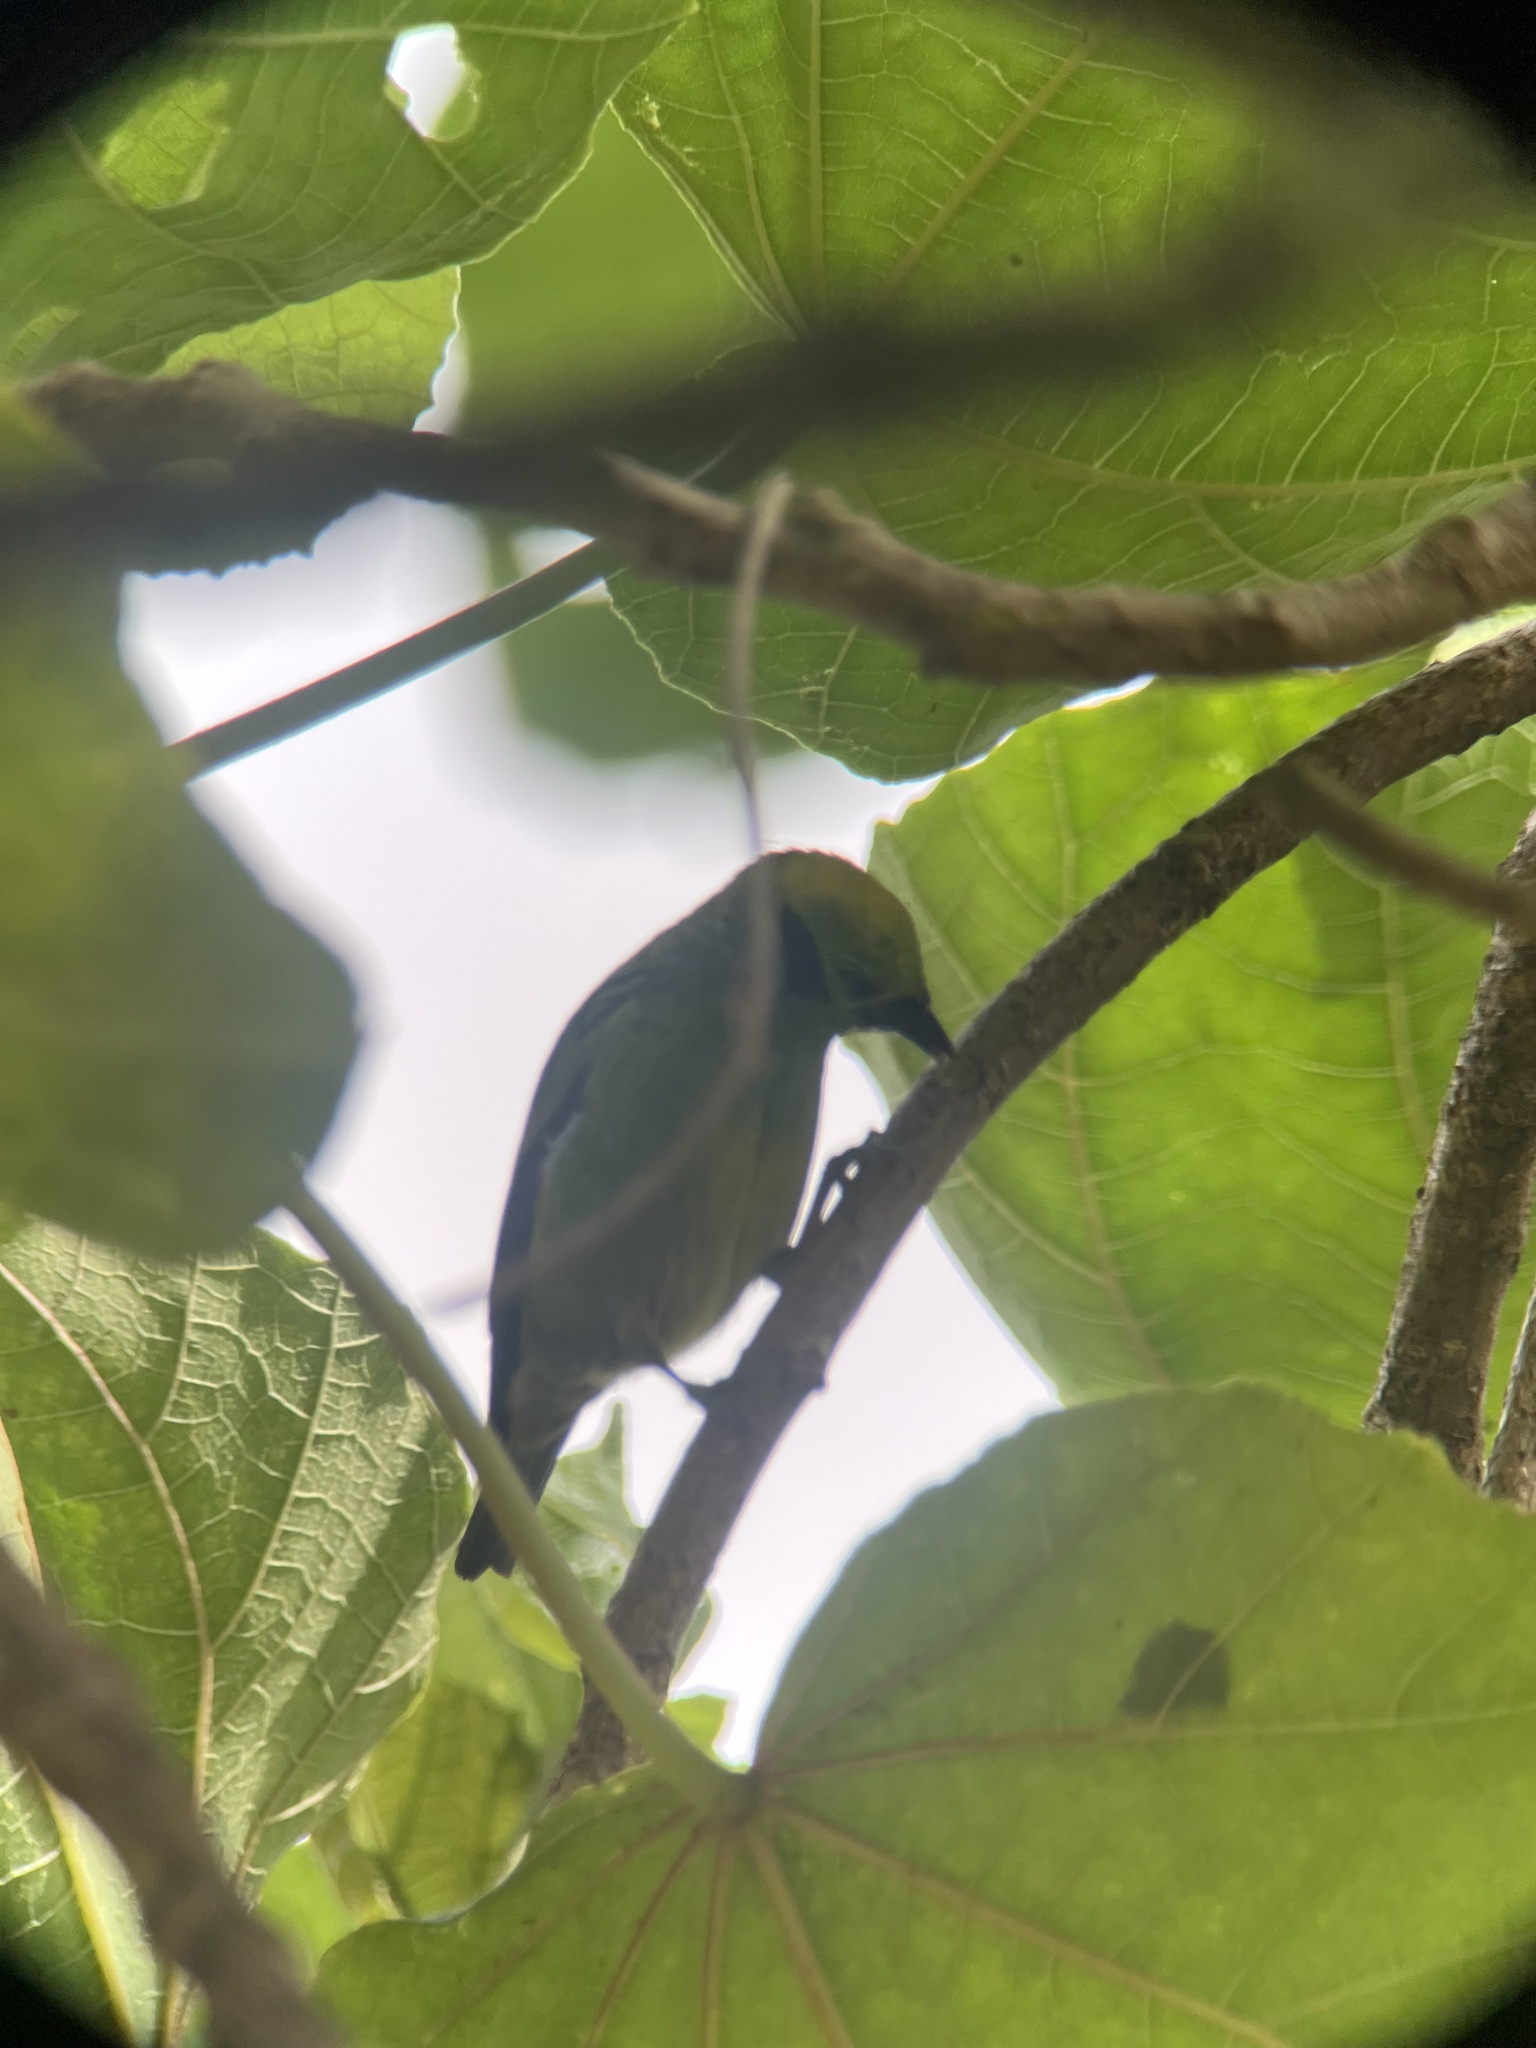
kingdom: Animalia
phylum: Chordata
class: Aves
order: Passeriformes
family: Thraupidae
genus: Tangara
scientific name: Tangara florida
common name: Emerald tanager
